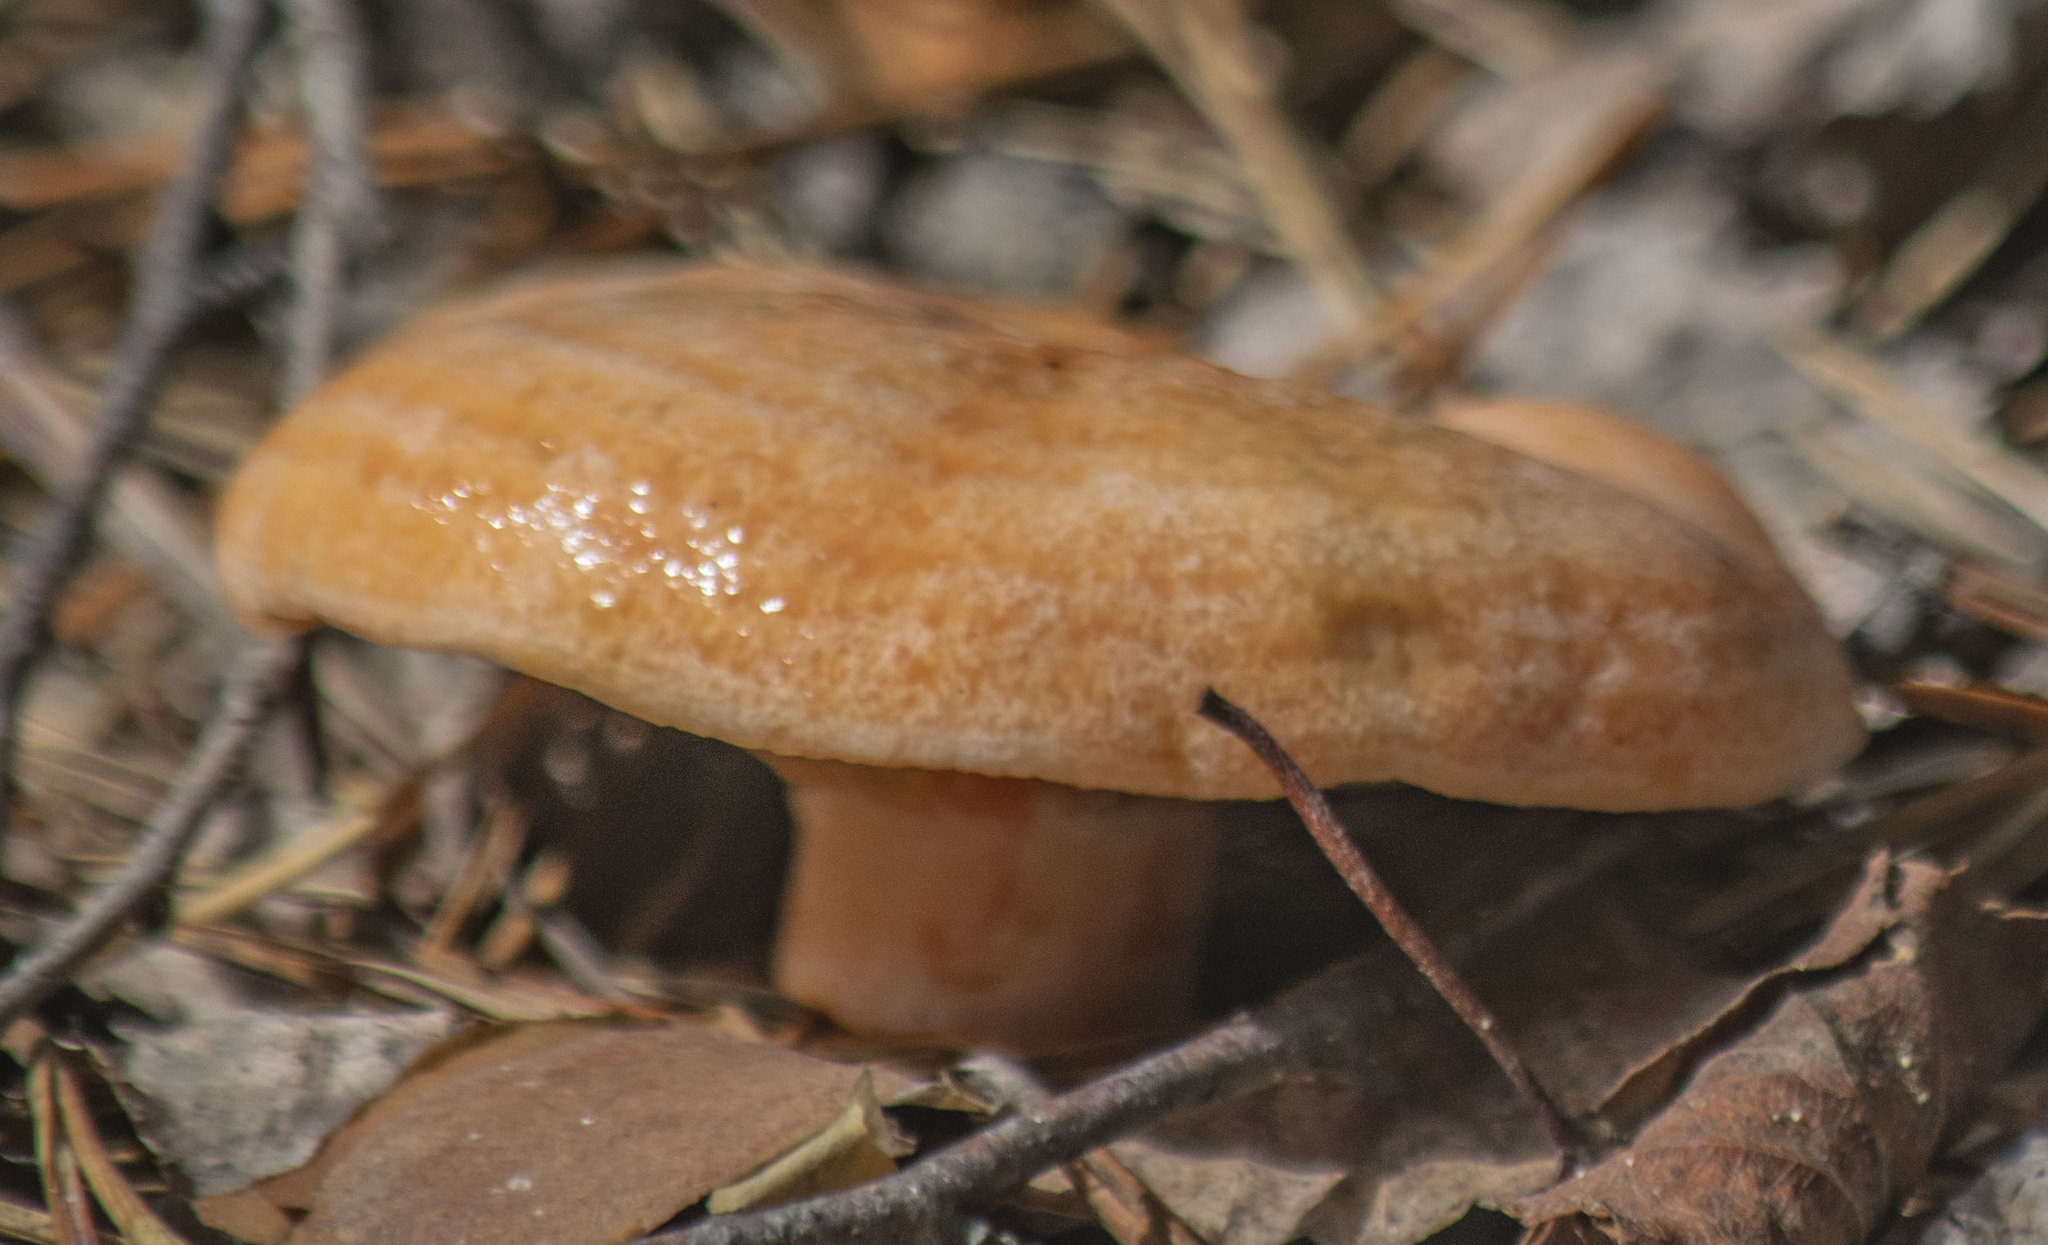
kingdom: Fungi
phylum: Basidiomycota
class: Agaricomycetes
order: Russulales
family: Russulaceae
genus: Lactarius
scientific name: Lactarius deliciosus
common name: Saffron milk-cap
